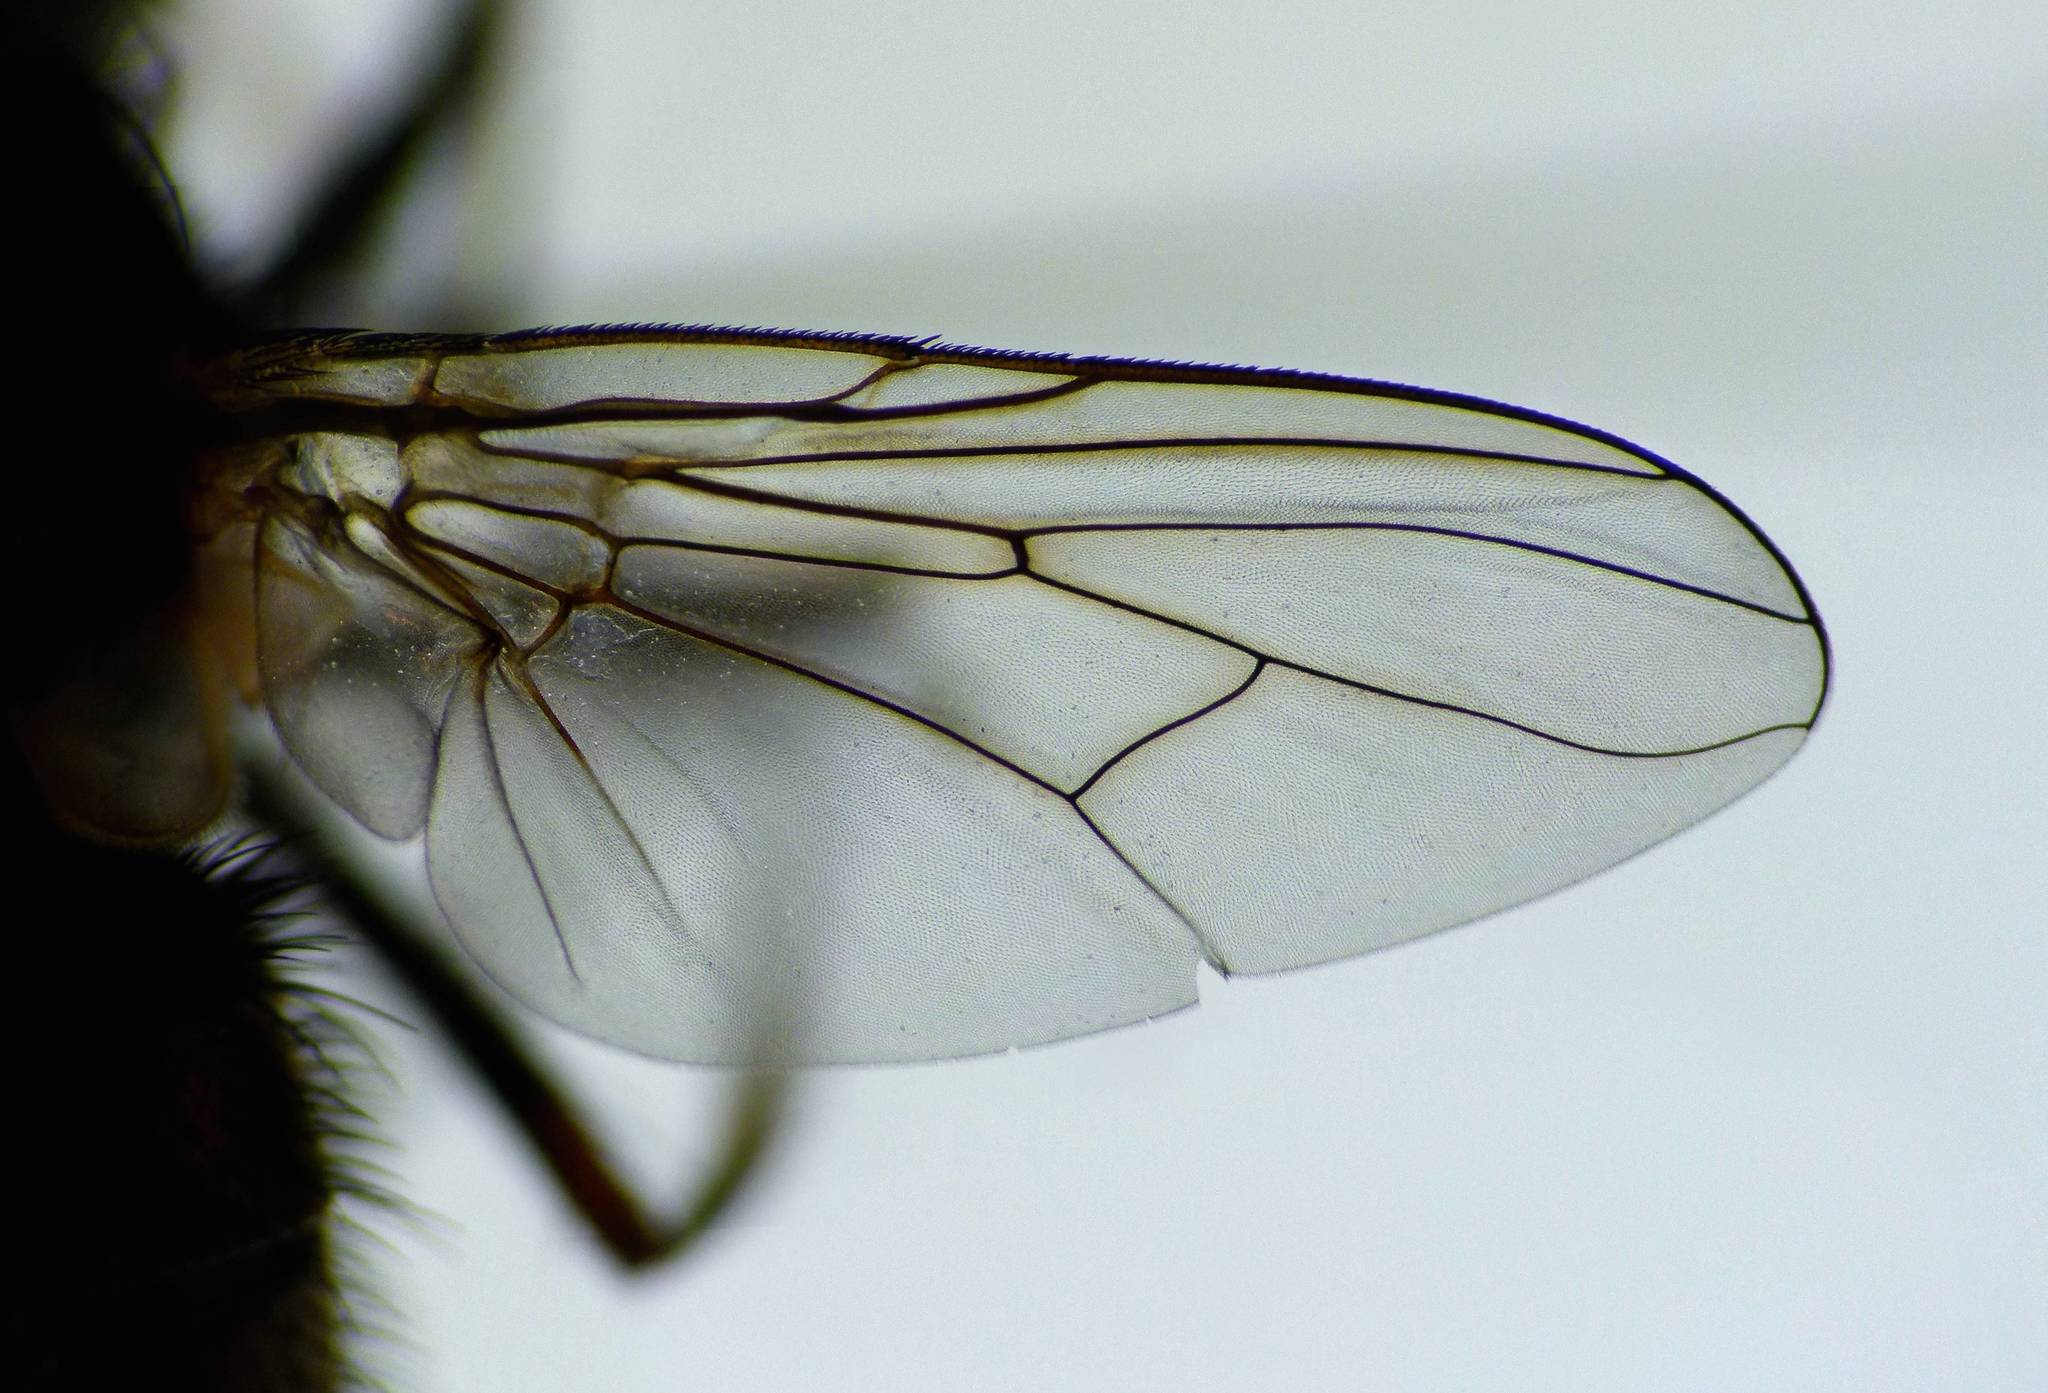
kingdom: Animalia
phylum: Arthropoda
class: Insecta
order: Diptera
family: Muscidae
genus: Muscina
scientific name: Muscina stabulans
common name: False stable fly
